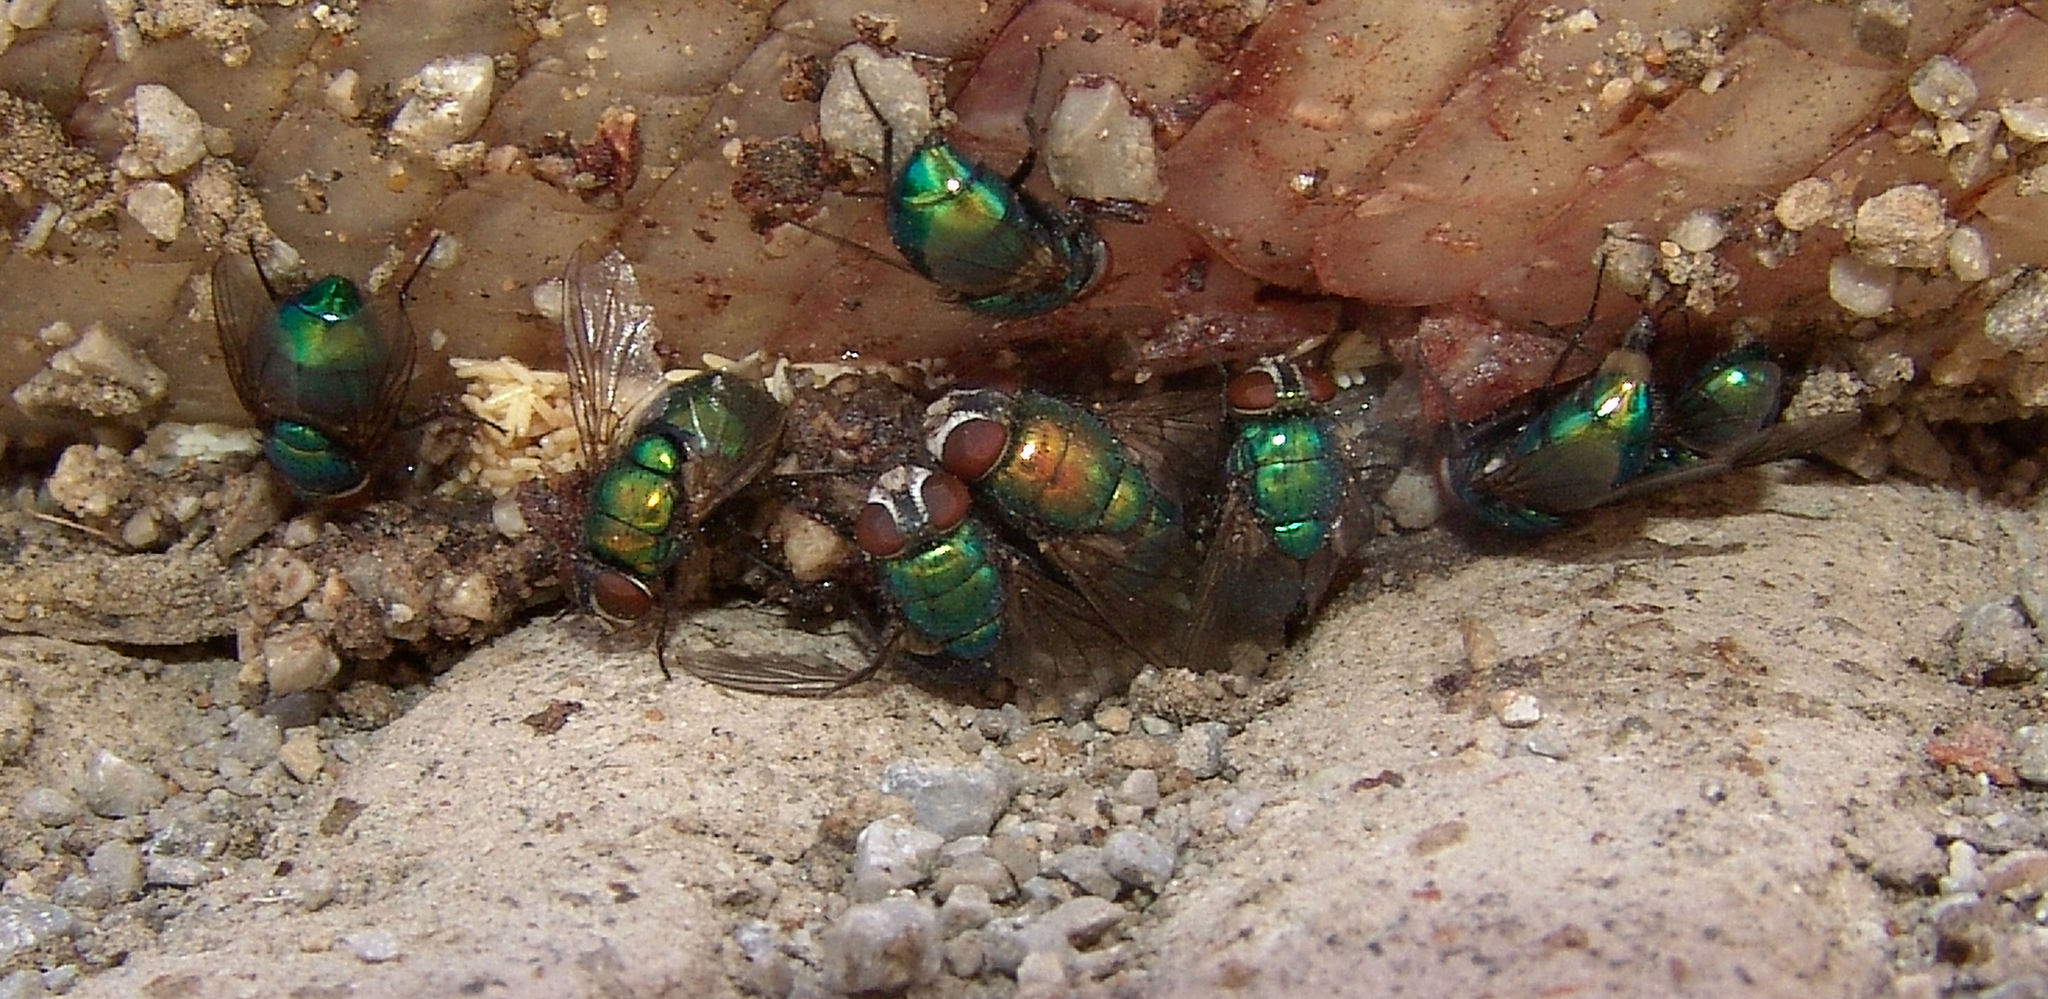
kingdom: Animalia
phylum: Arthropoda
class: Insecta
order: Diptera
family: Calliphoridae
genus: Lucilia
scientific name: Lucilia caeruleiviridis
